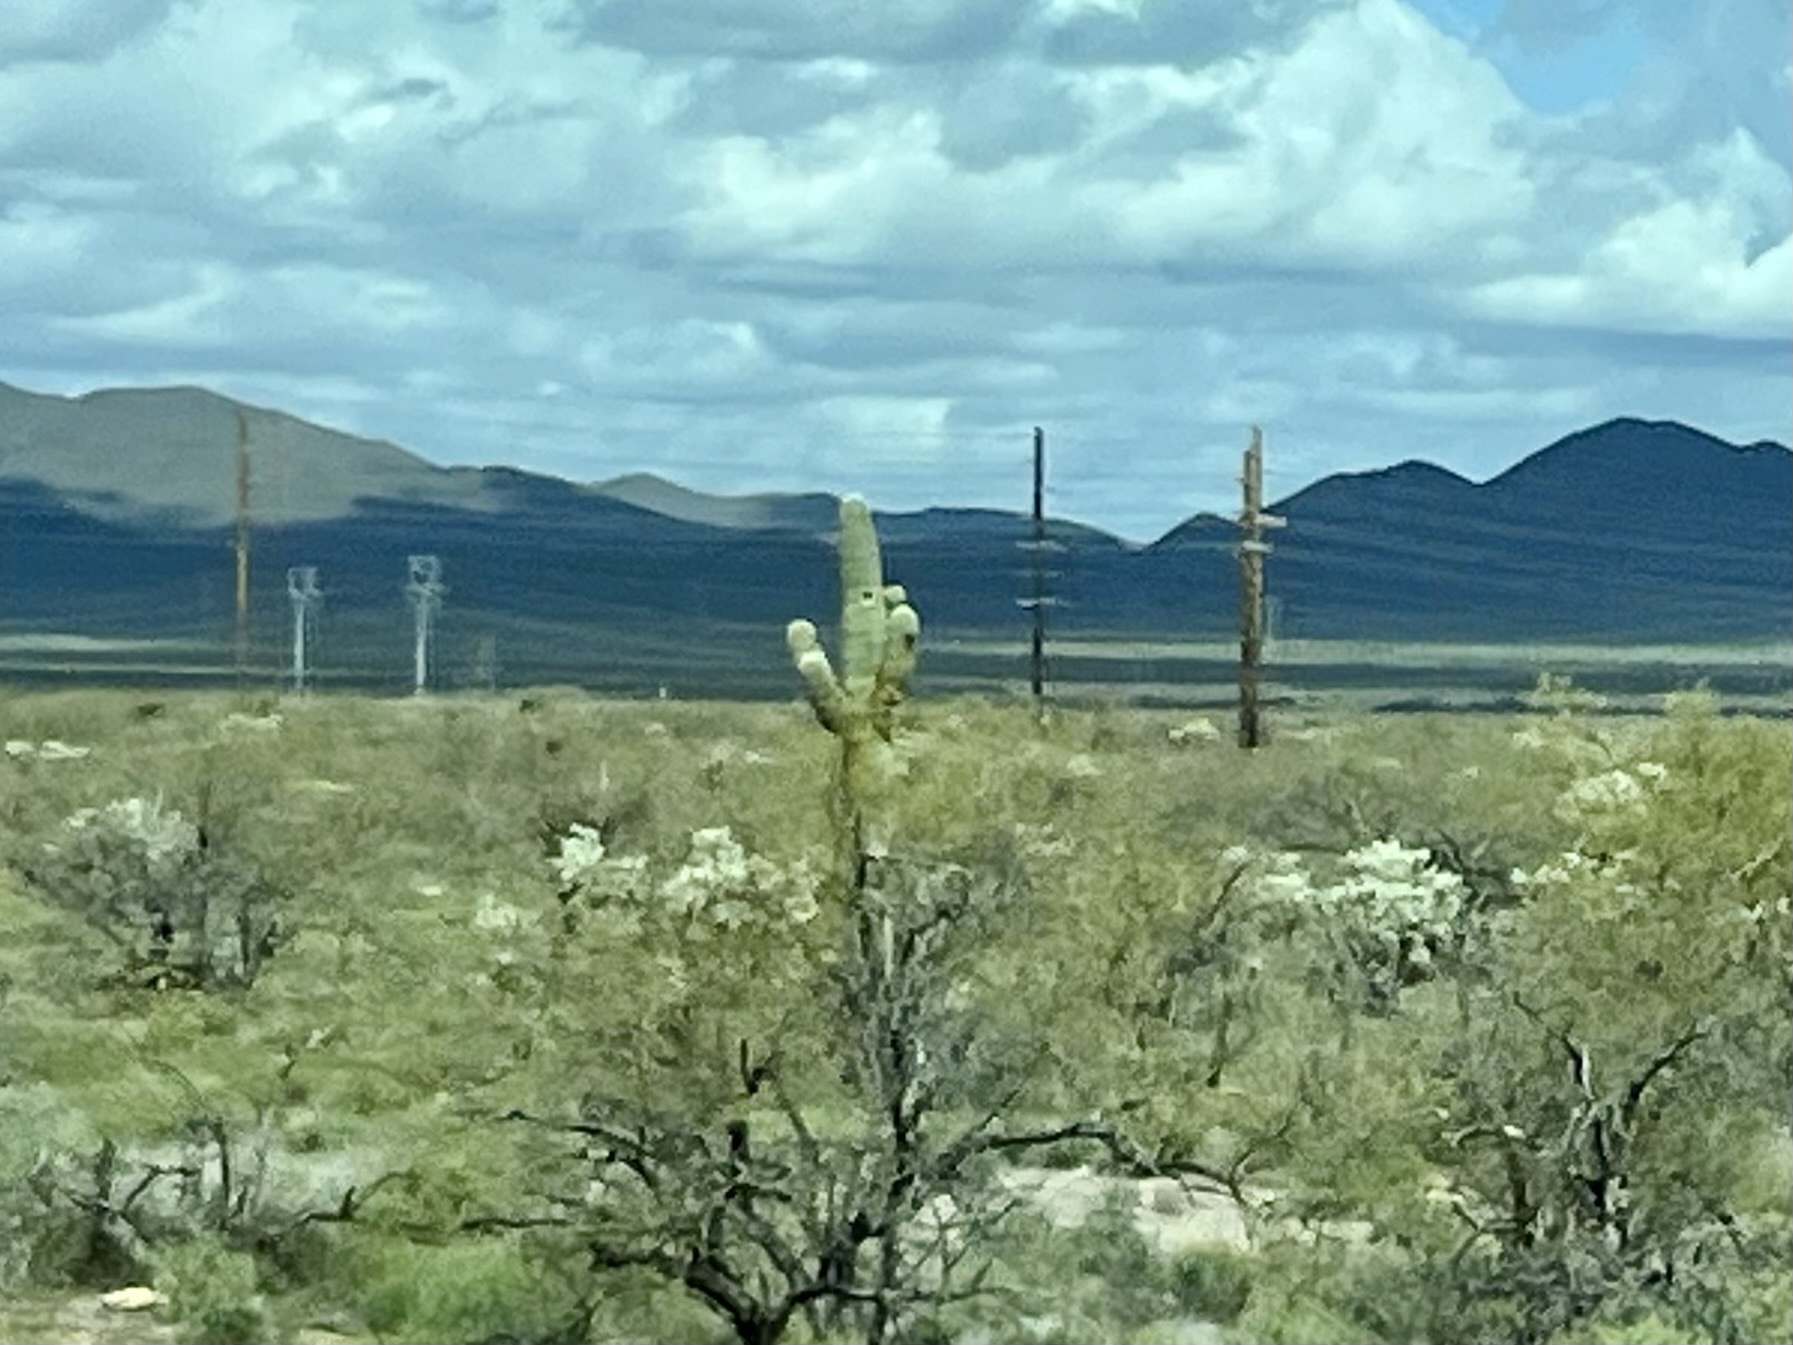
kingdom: Plantae
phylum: Tracheophyta
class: Magnoliopsida
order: Caryophyllales
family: Cactaceae
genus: Carnegiea
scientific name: Carnegiea gigantea
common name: Saguaro
